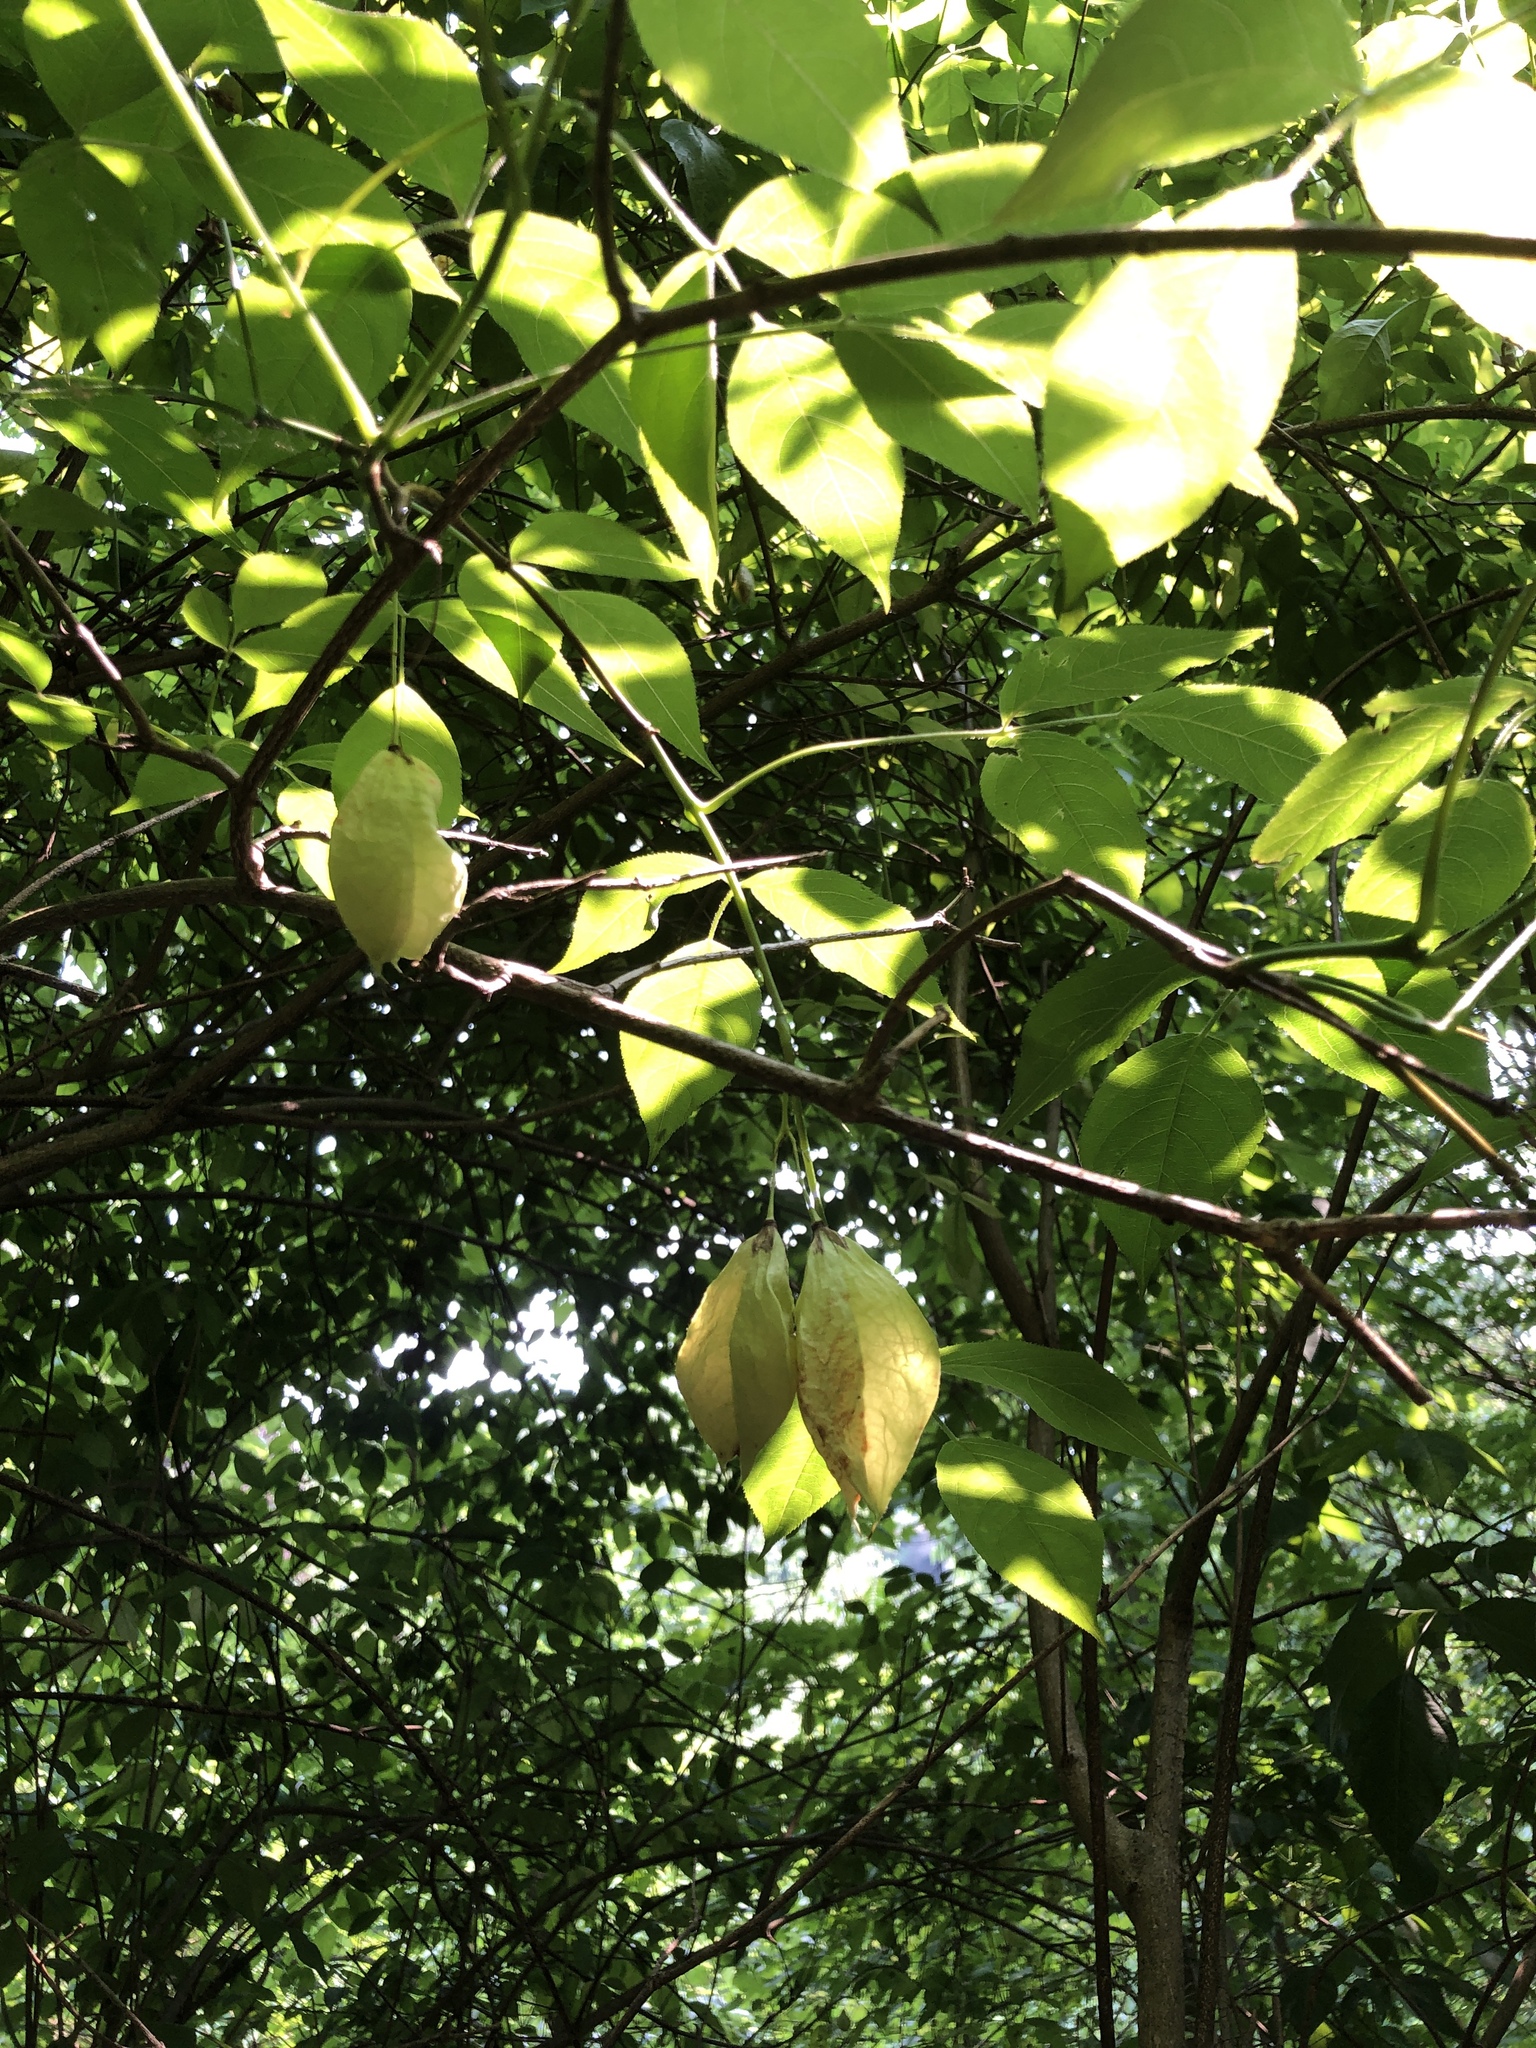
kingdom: Plantae
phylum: Tracheophyta
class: Magnoliopsida
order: Crossosomatales
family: Staphyleaceae
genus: Staphylea
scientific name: Staphylea trifolia
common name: American bladdernut
